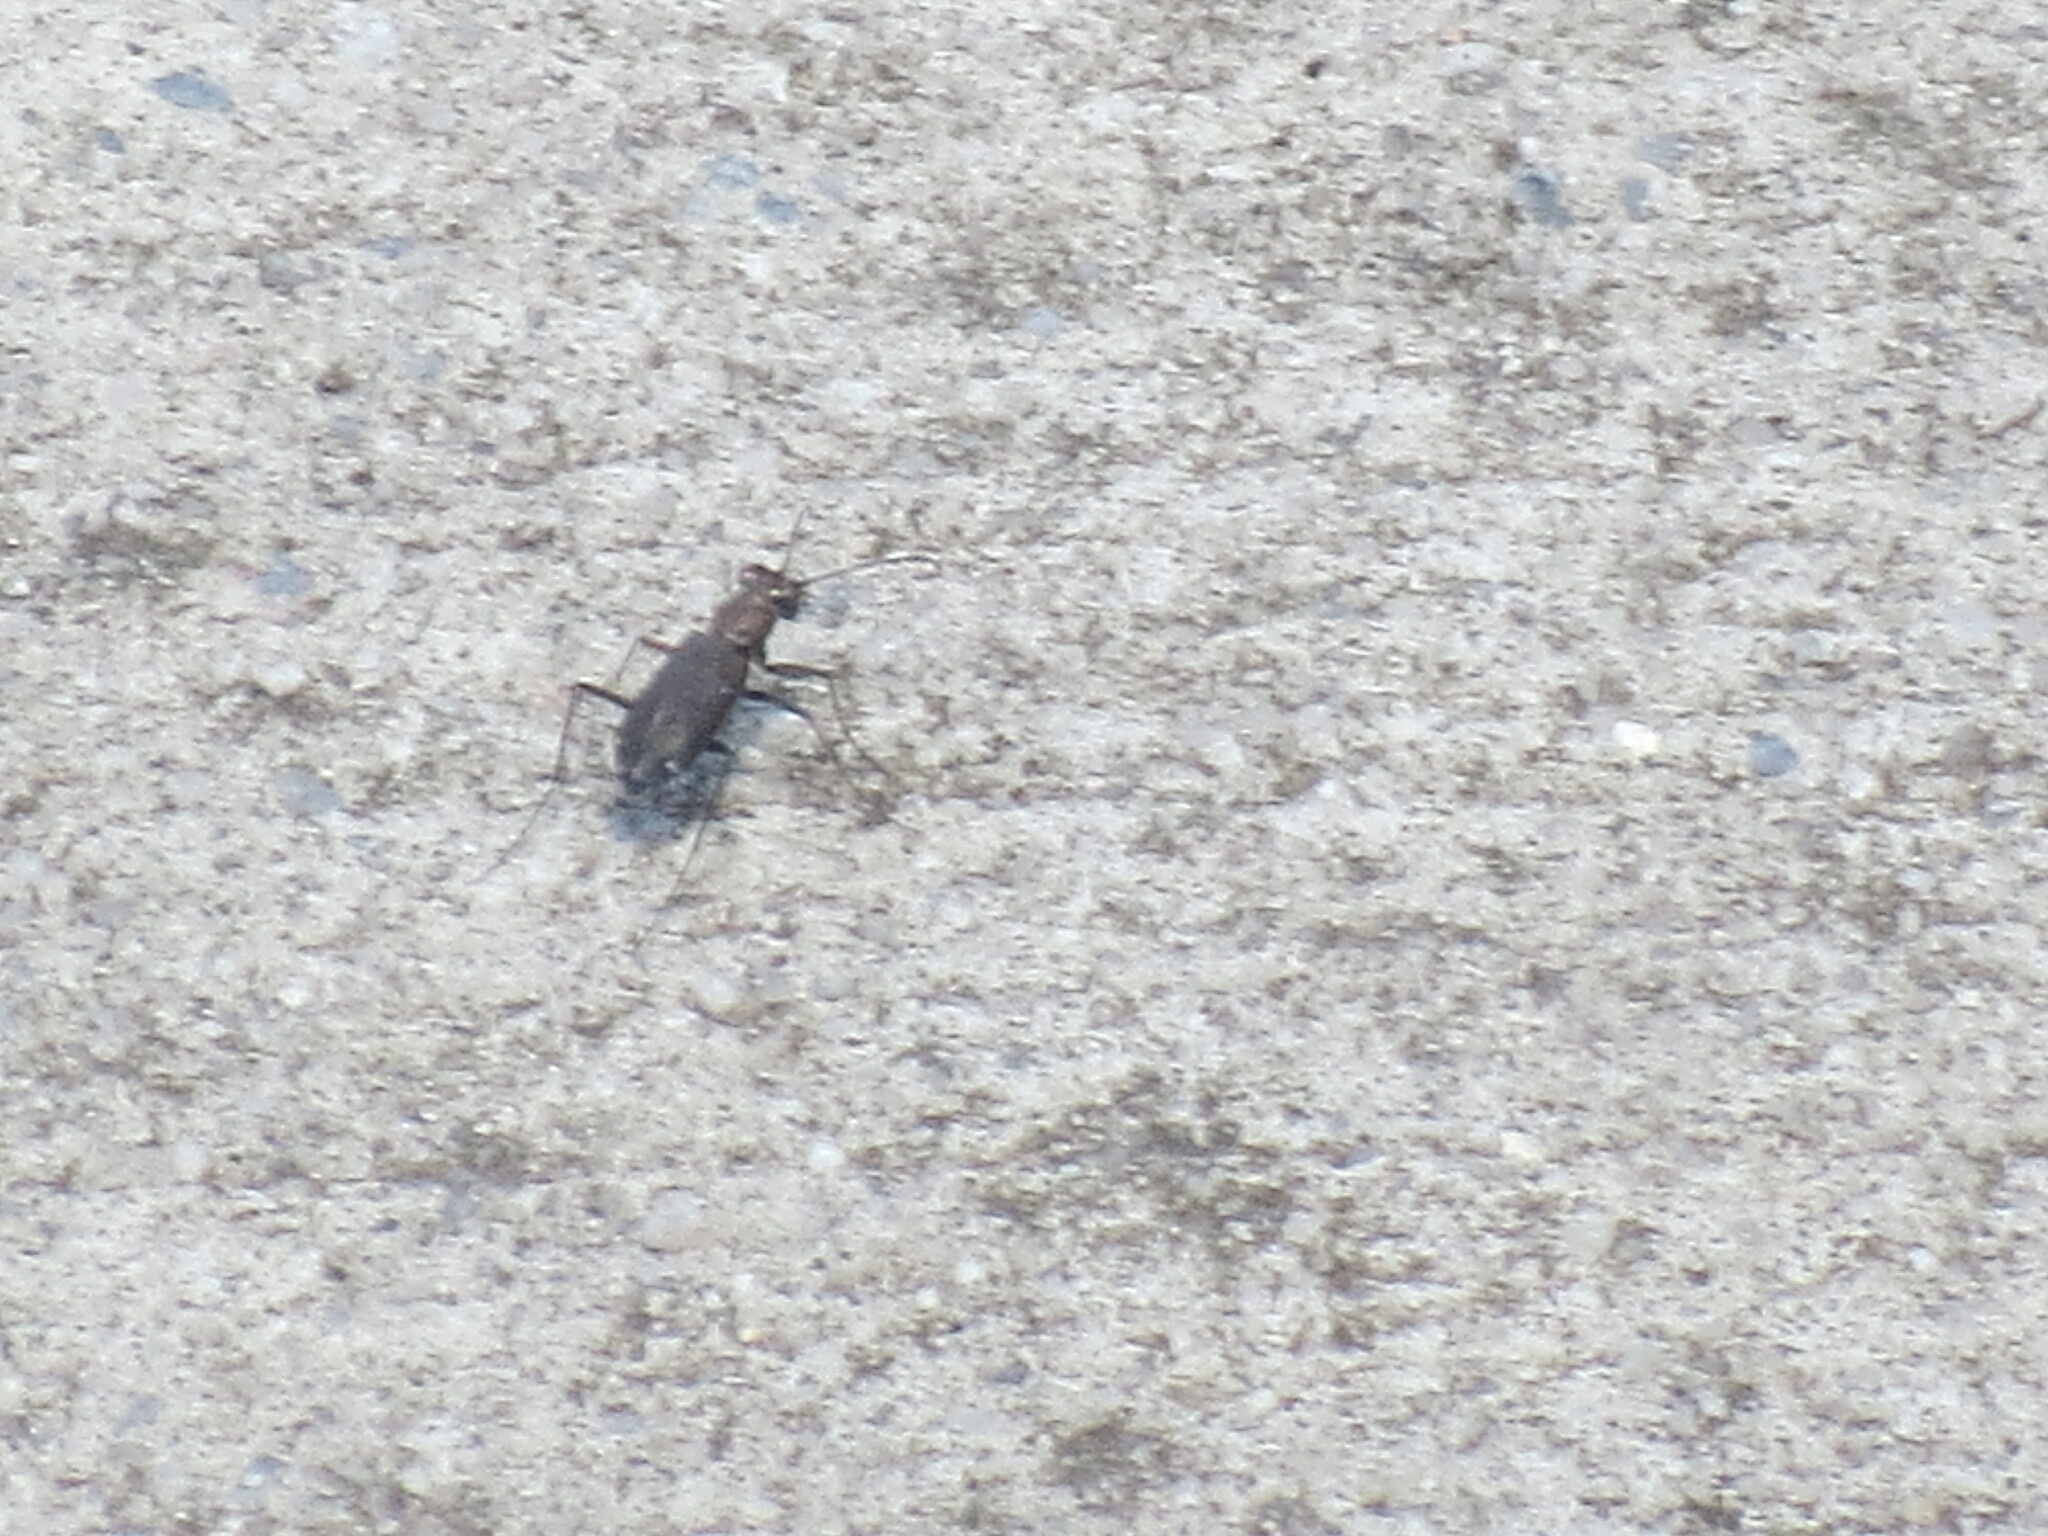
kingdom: Animalia
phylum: Arthropoda
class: Insecta
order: Coleoptera
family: Carabidae
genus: Cicindela
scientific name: Cicindela punctulata
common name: Punctured tiger beetle
